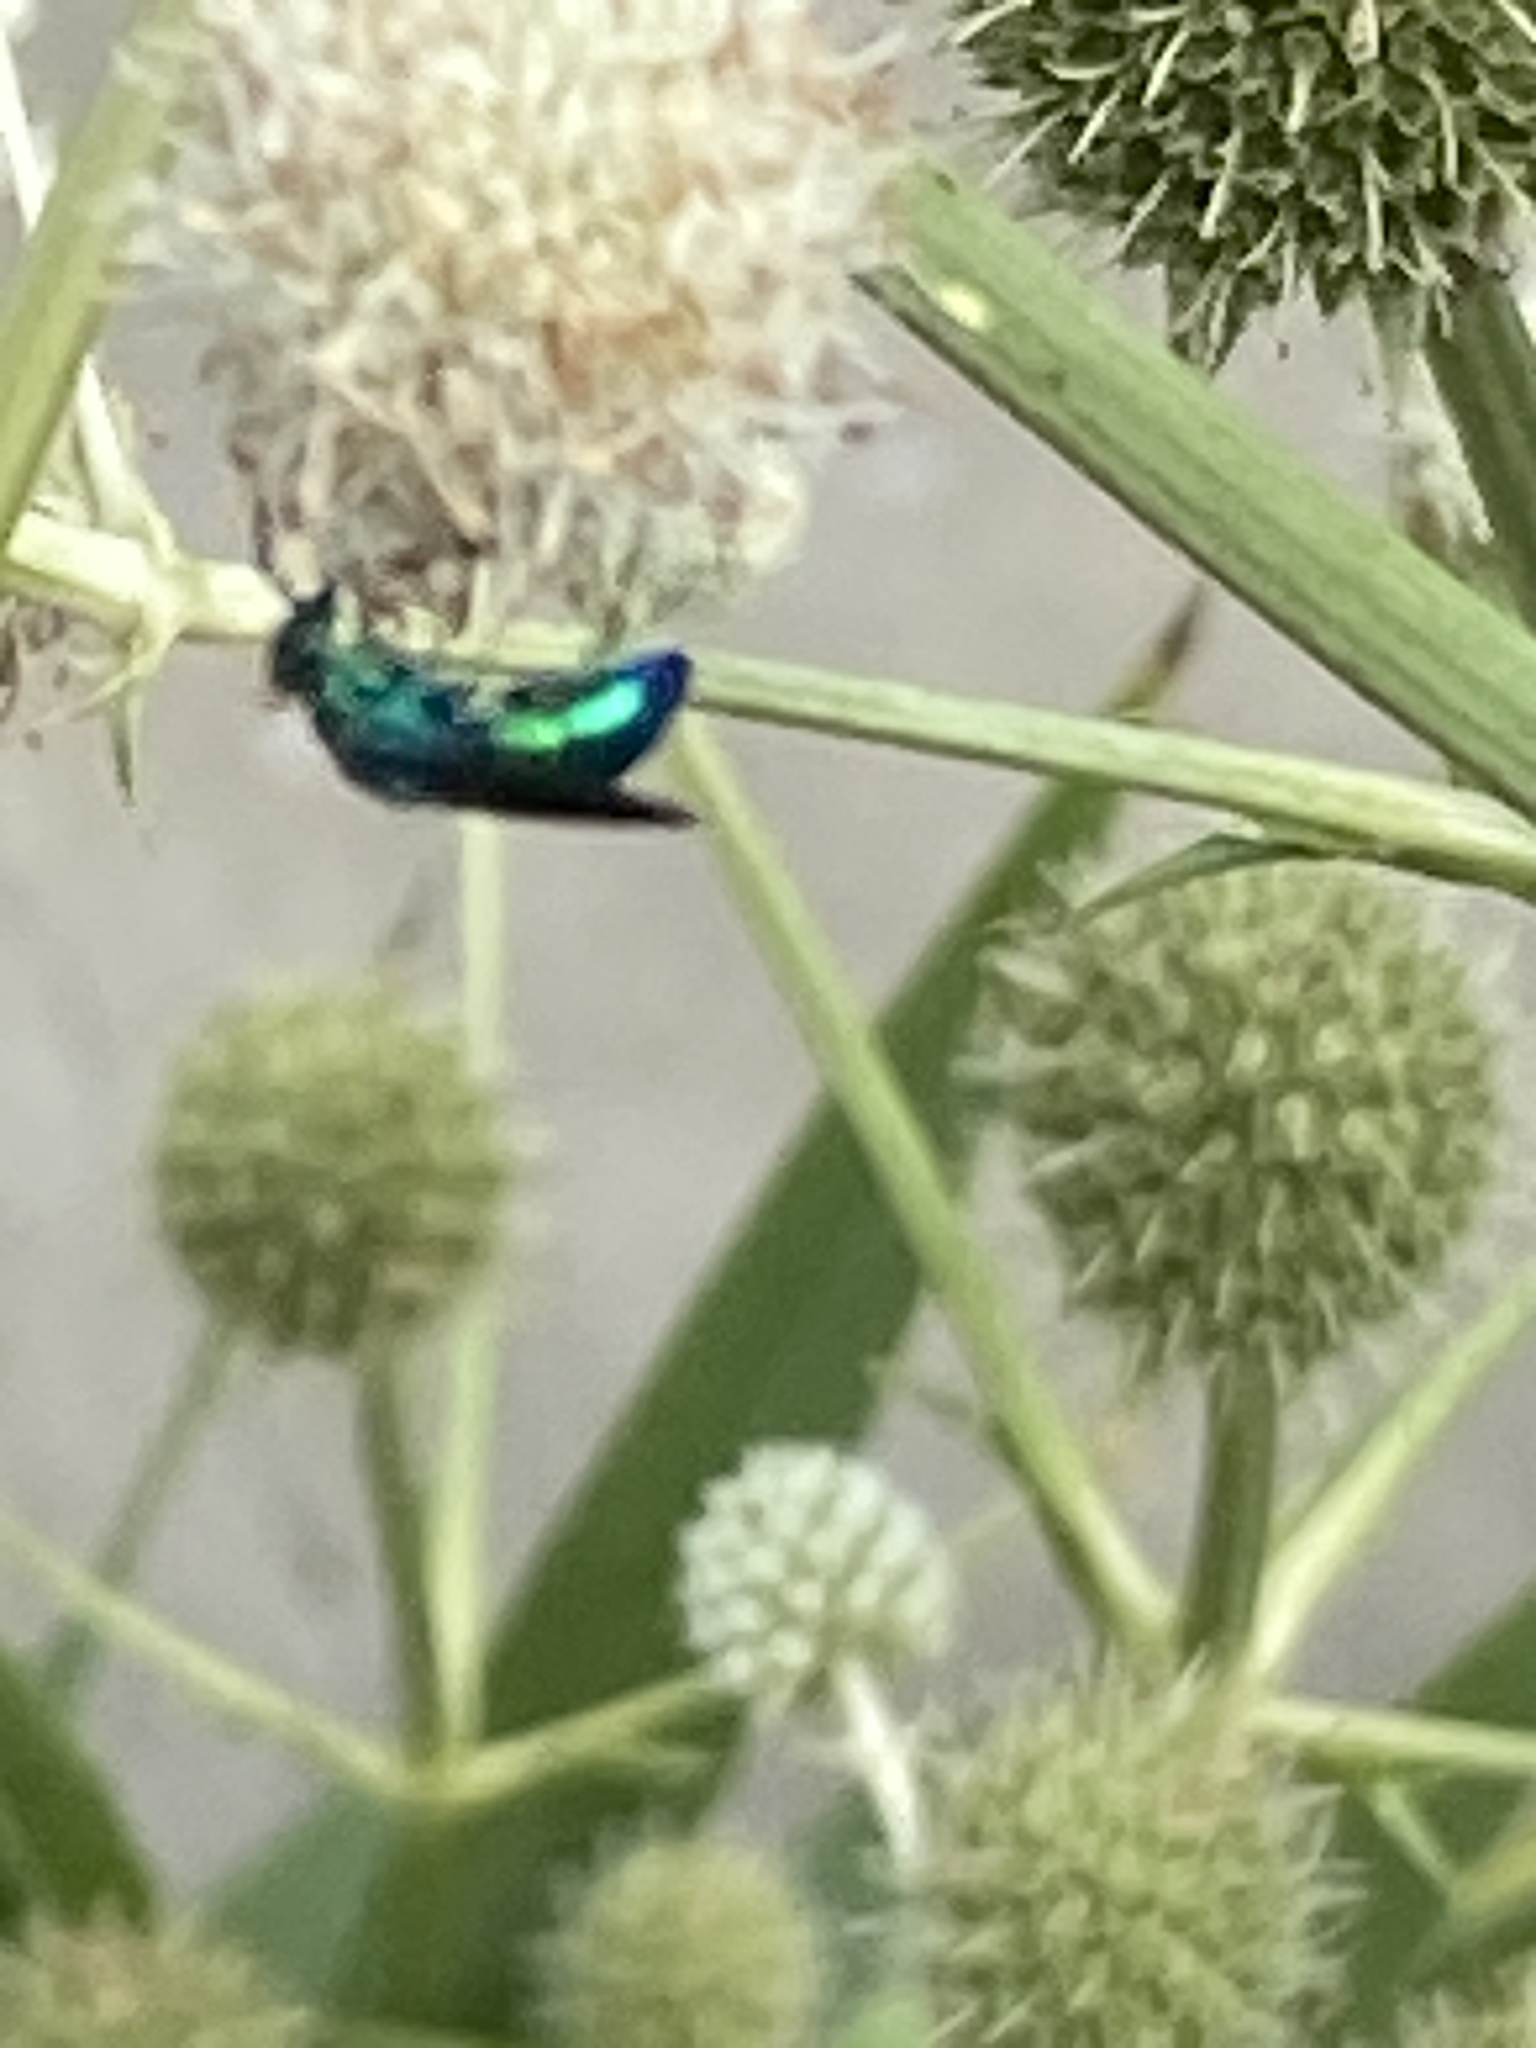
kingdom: Animalia
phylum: Arthropoda
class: Insecta
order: Hymenoptera
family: Chrysididae
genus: Chrysis
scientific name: Chrysis angolensis
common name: Cuckoo wasp
